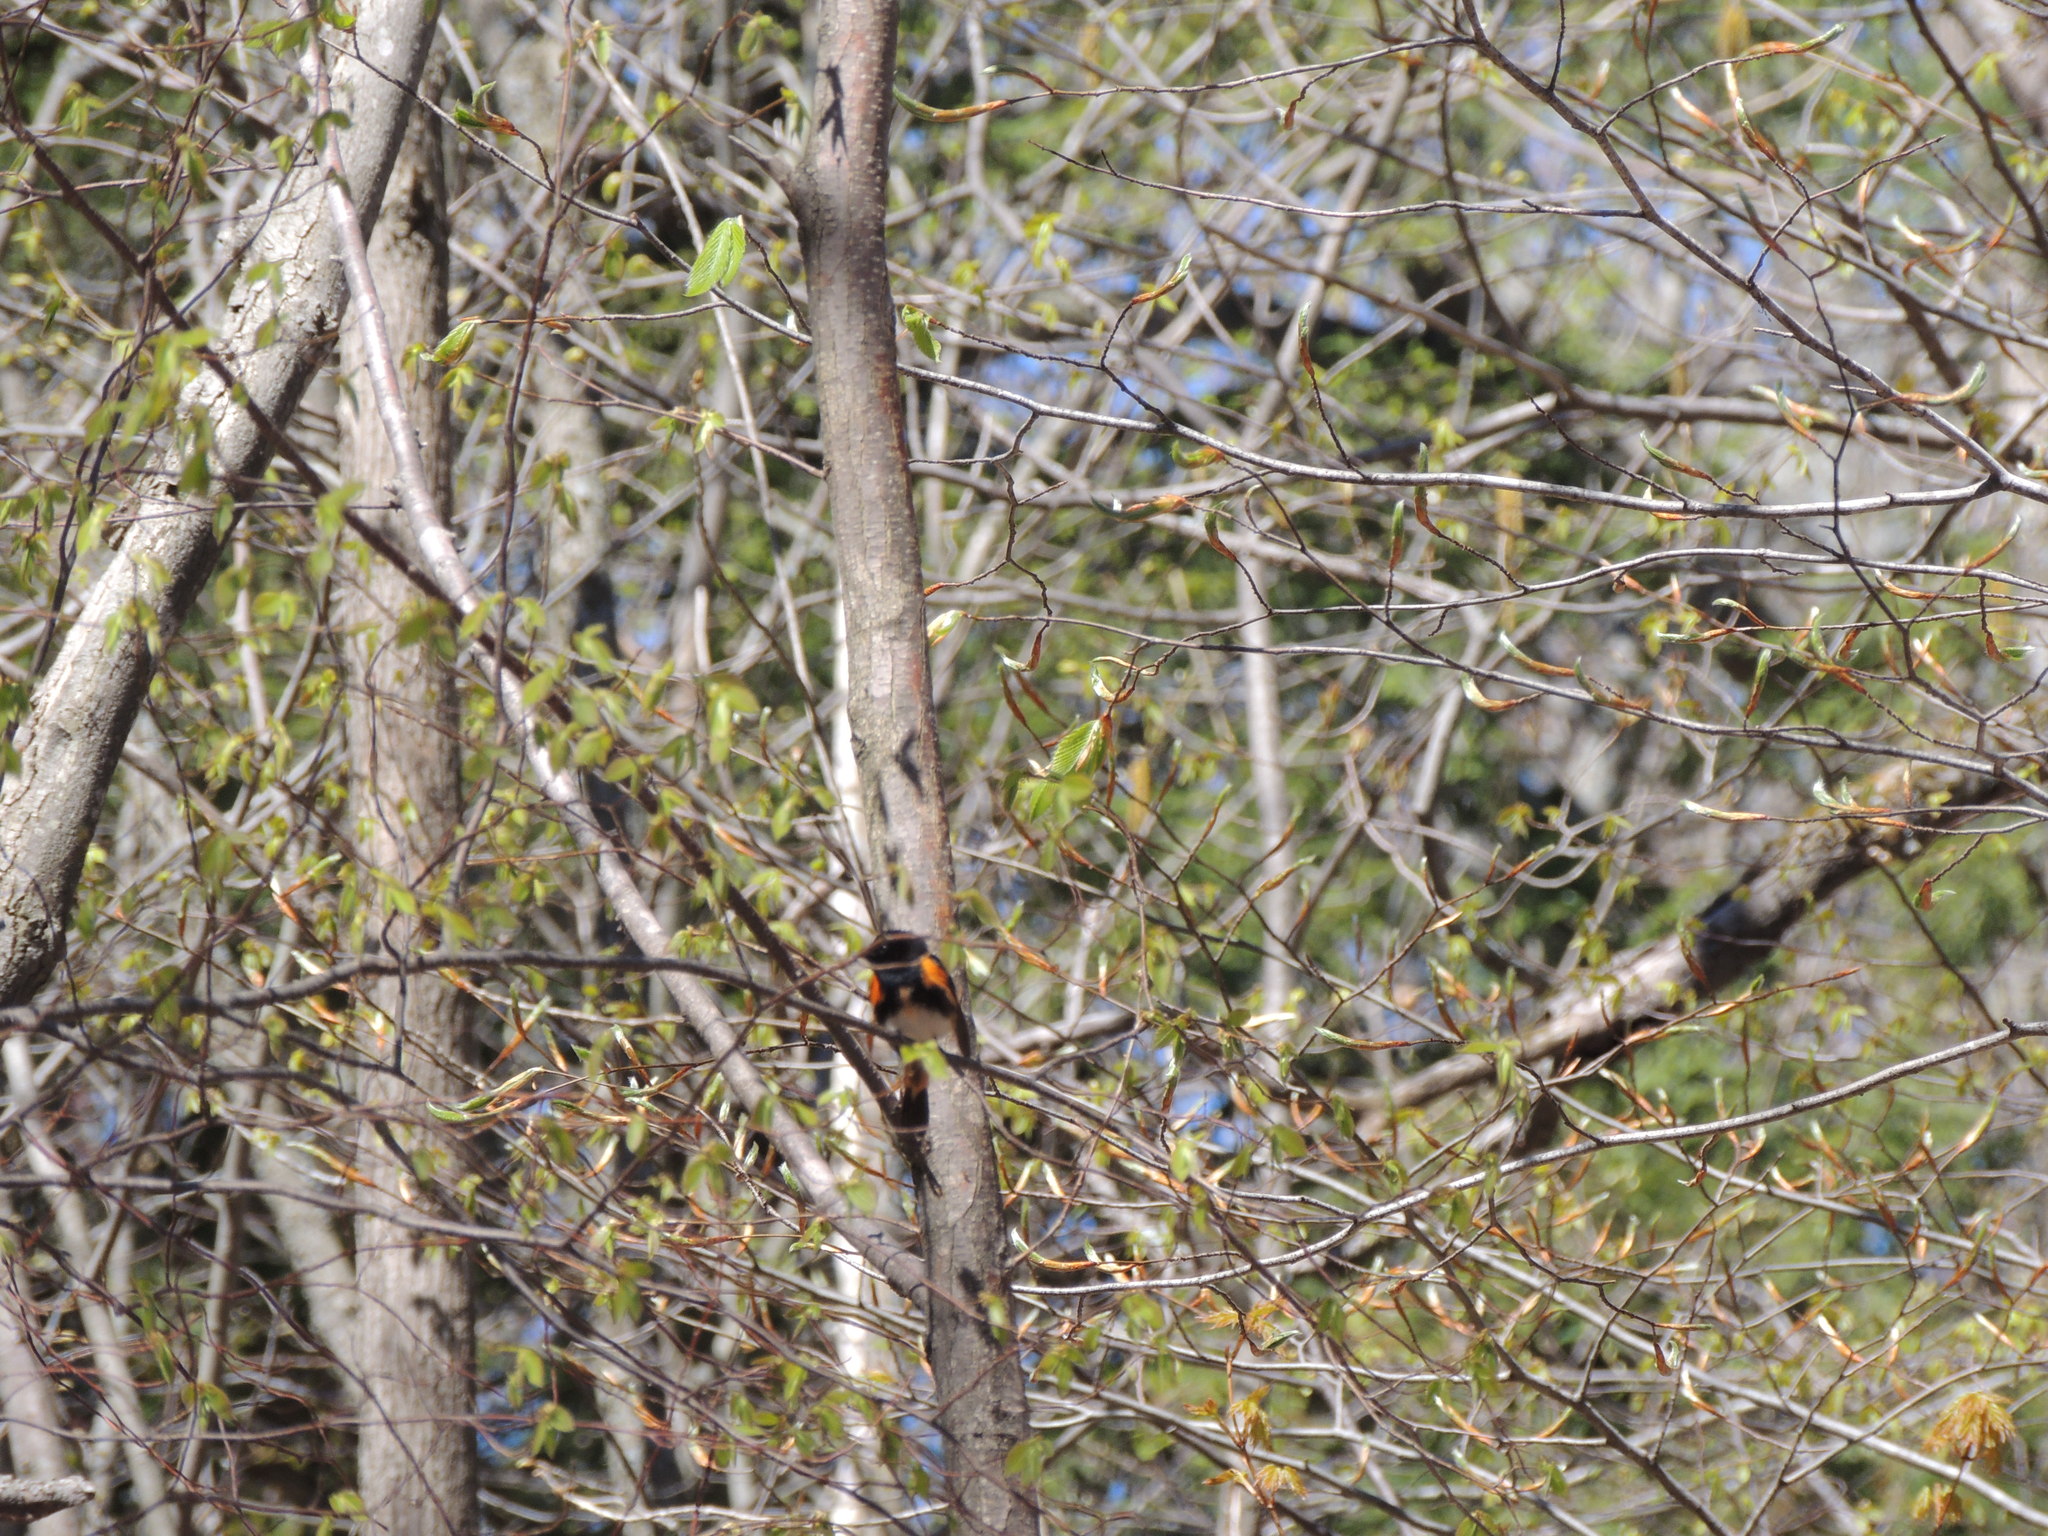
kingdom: Animalia
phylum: Chordata
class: Aves
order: Passeriformes
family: Parulidae
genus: Setophaga
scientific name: Setophaga ruticilla
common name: American redstart
